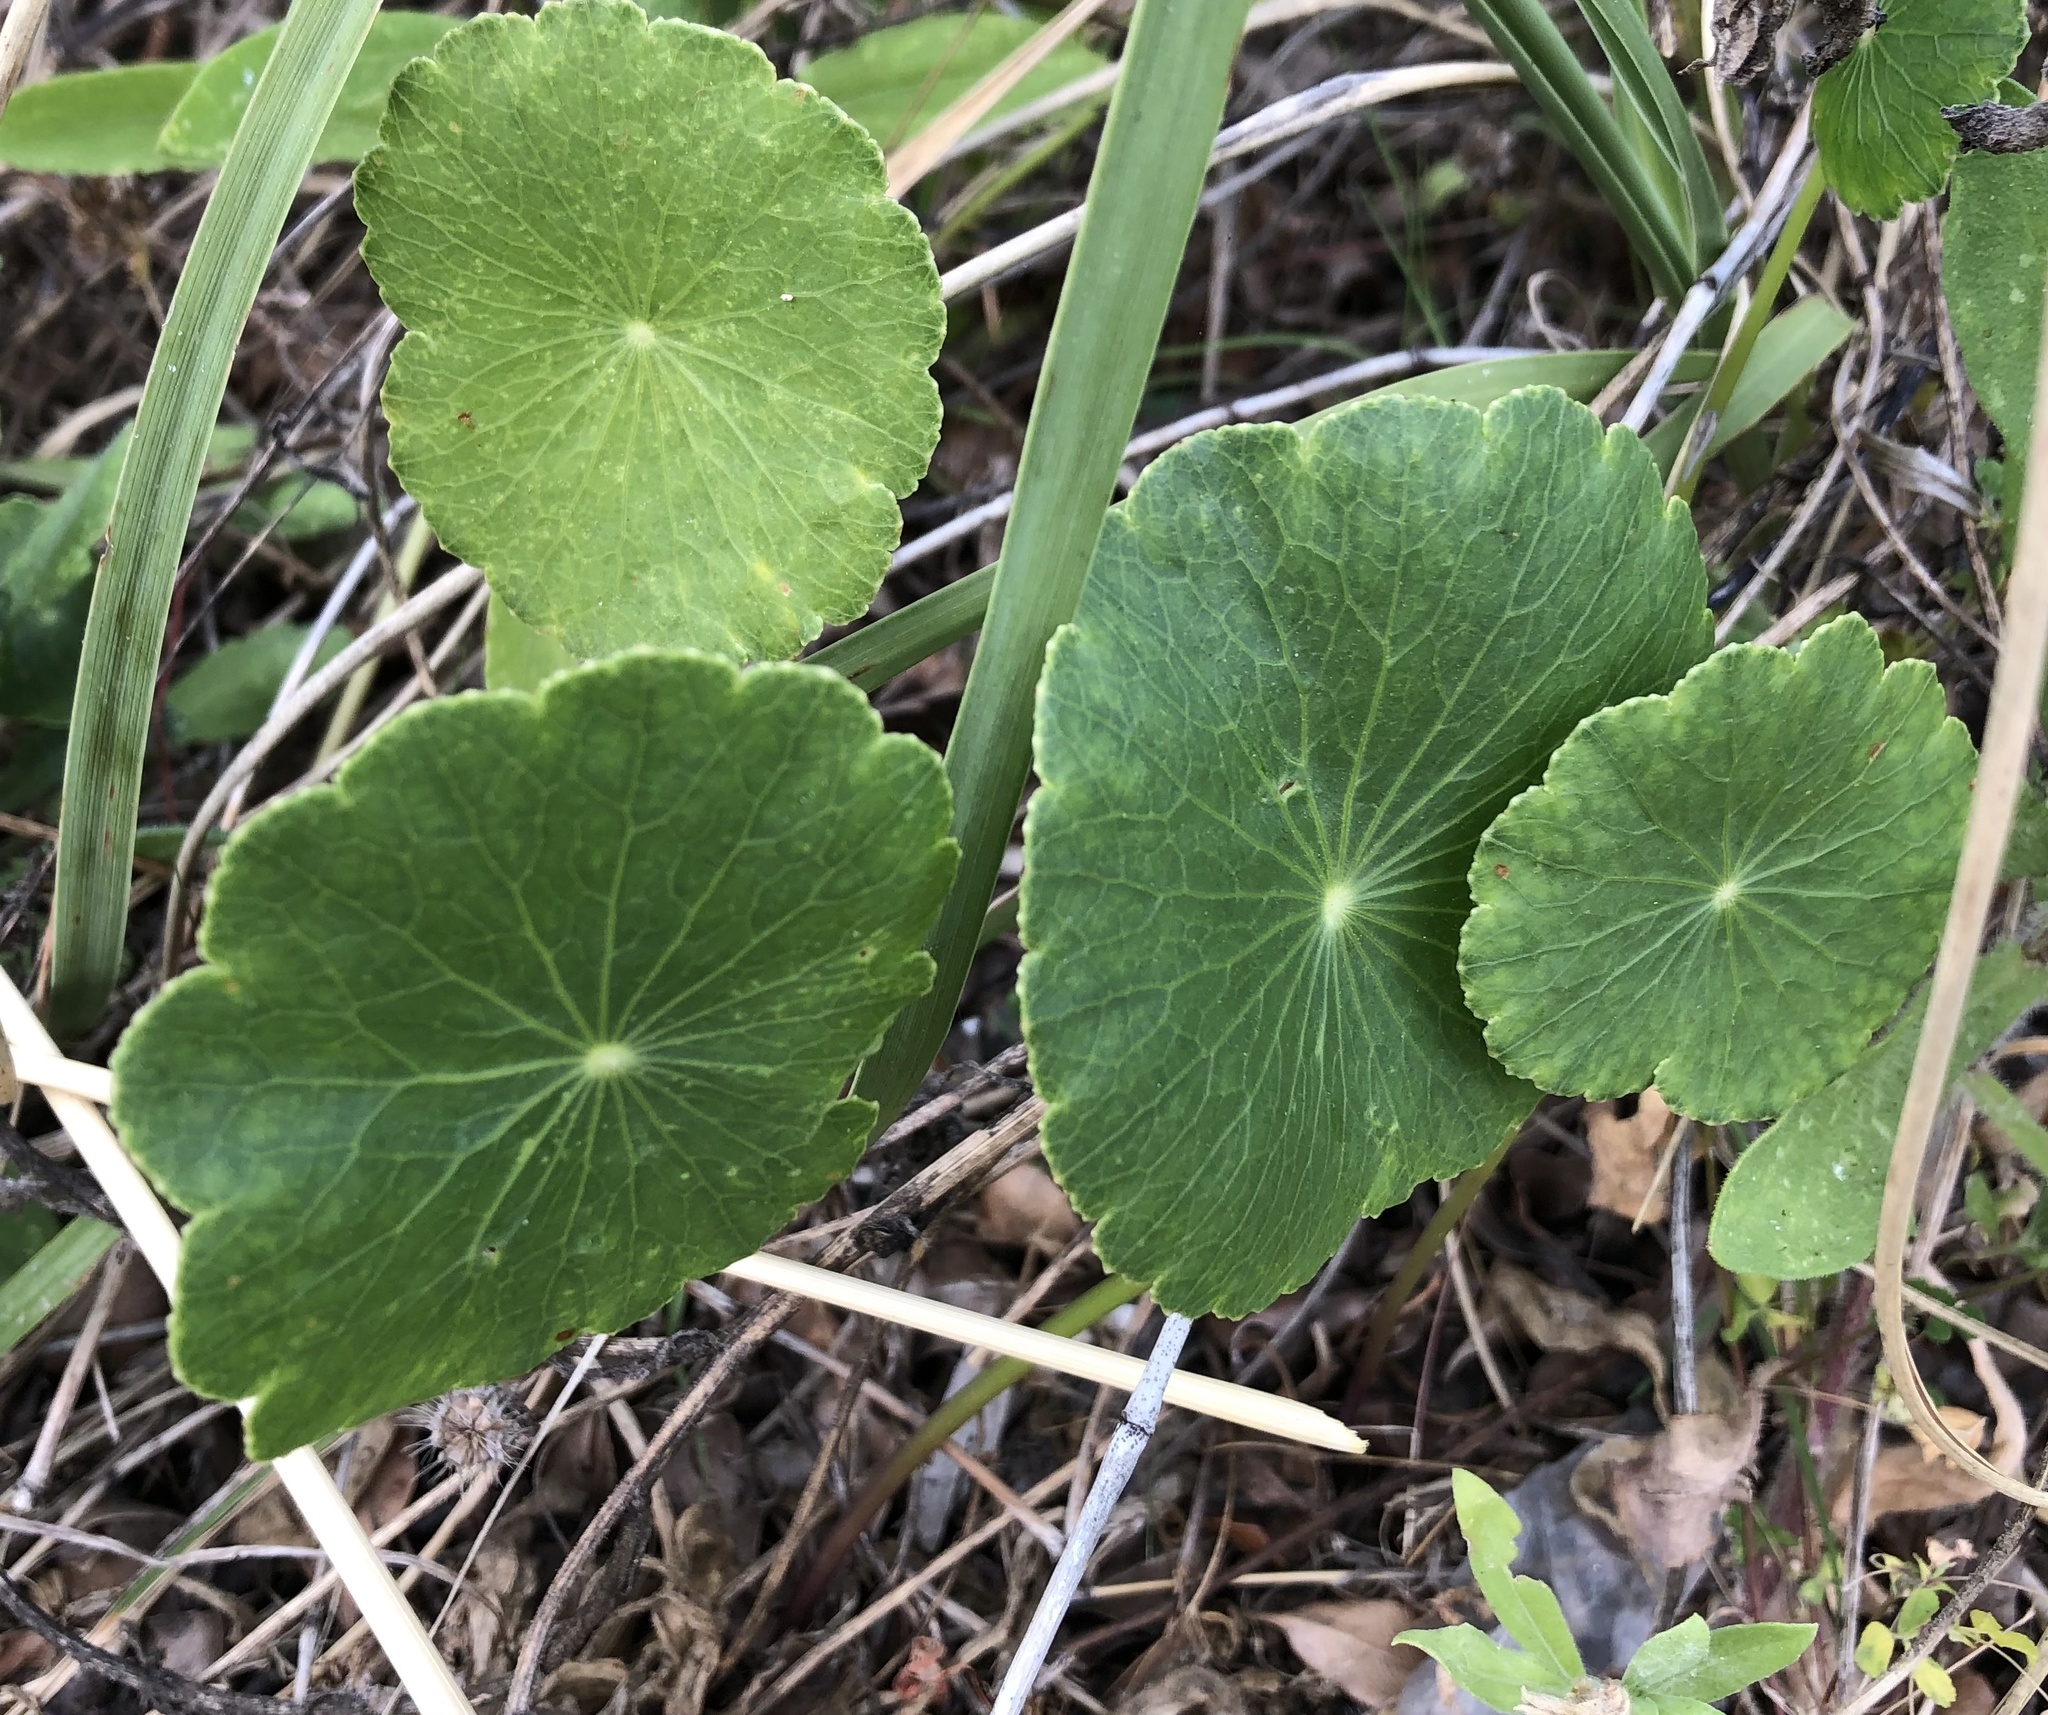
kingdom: Plantae
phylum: Tracheophyta
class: Magnoliopsida
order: Apiales
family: Araliaceae
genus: Hydrocotyle
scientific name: Hydrocotyle bonariensis
